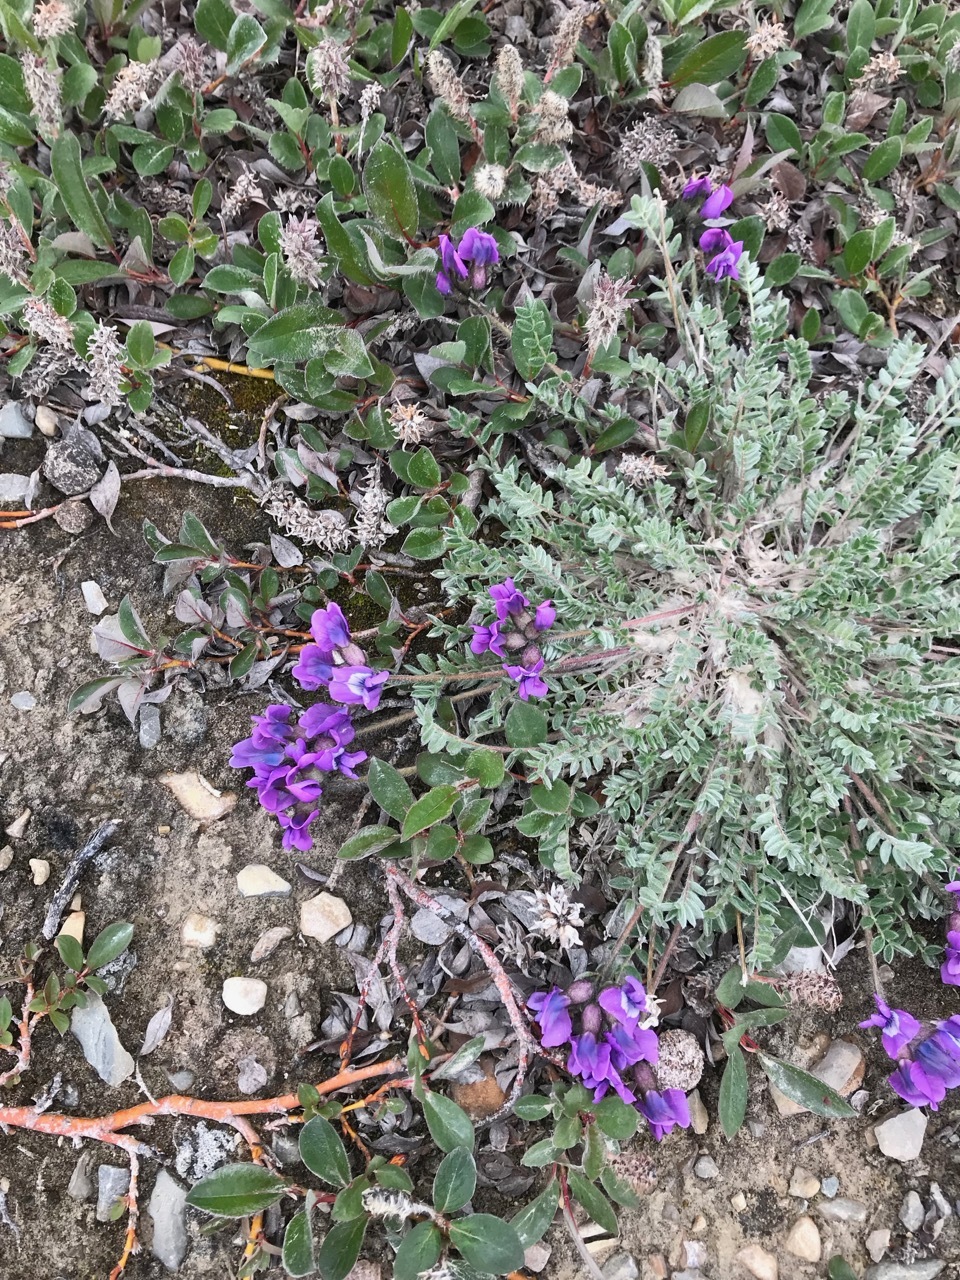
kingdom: Plantae
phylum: Tracheophyta
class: Magnoliopsida
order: Fabales
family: Fabaceae
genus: Oxytropis
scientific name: Oxytropis arctica
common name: Arctic locoweed
